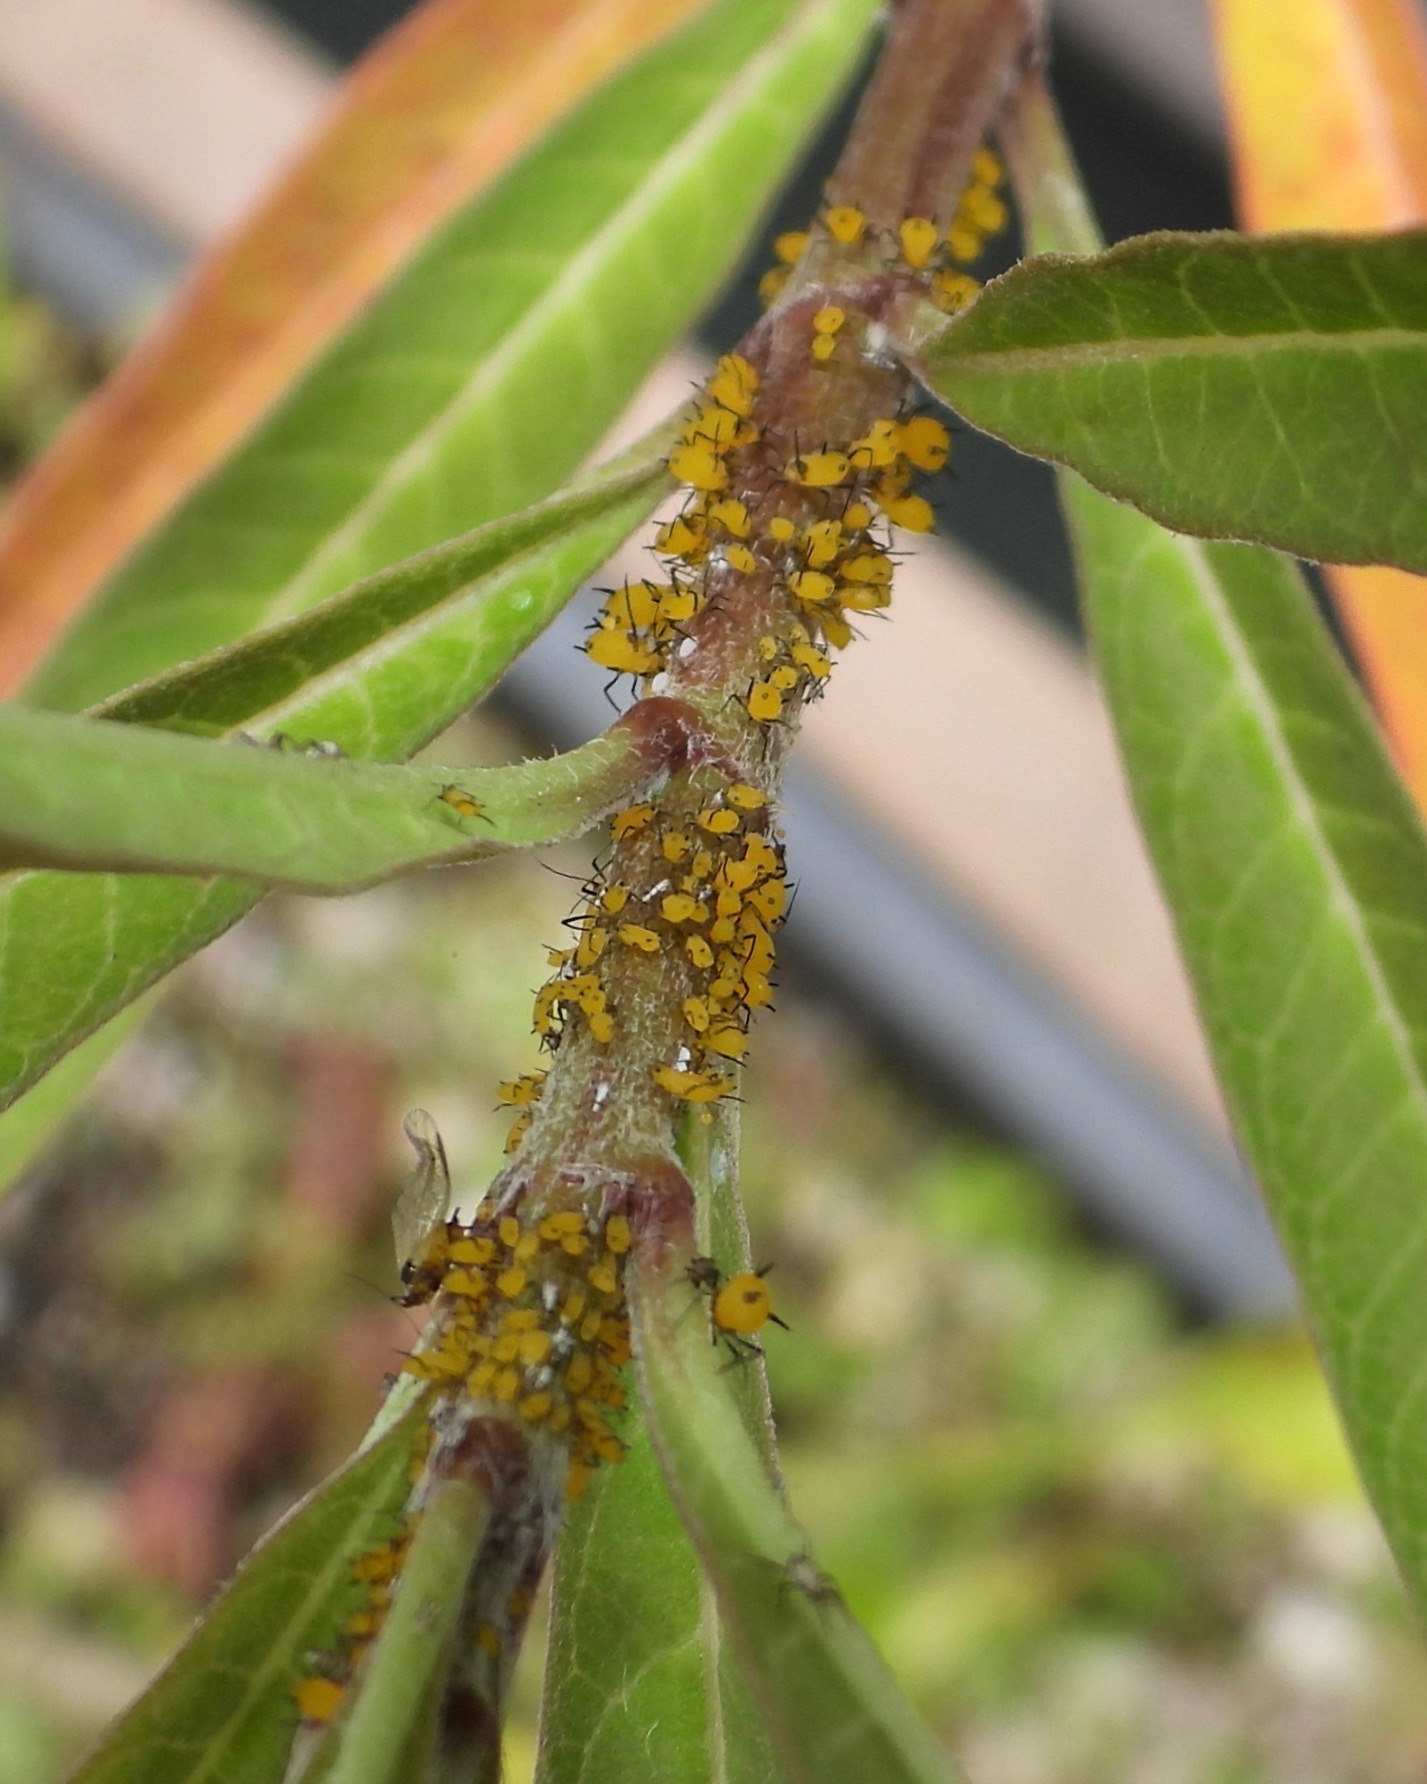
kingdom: Animalia
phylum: Arthropoda
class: Insecta
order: Hemiptera
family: Aphididae
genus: Aphis
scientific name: Aphis nerii
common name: Oleander aphid
